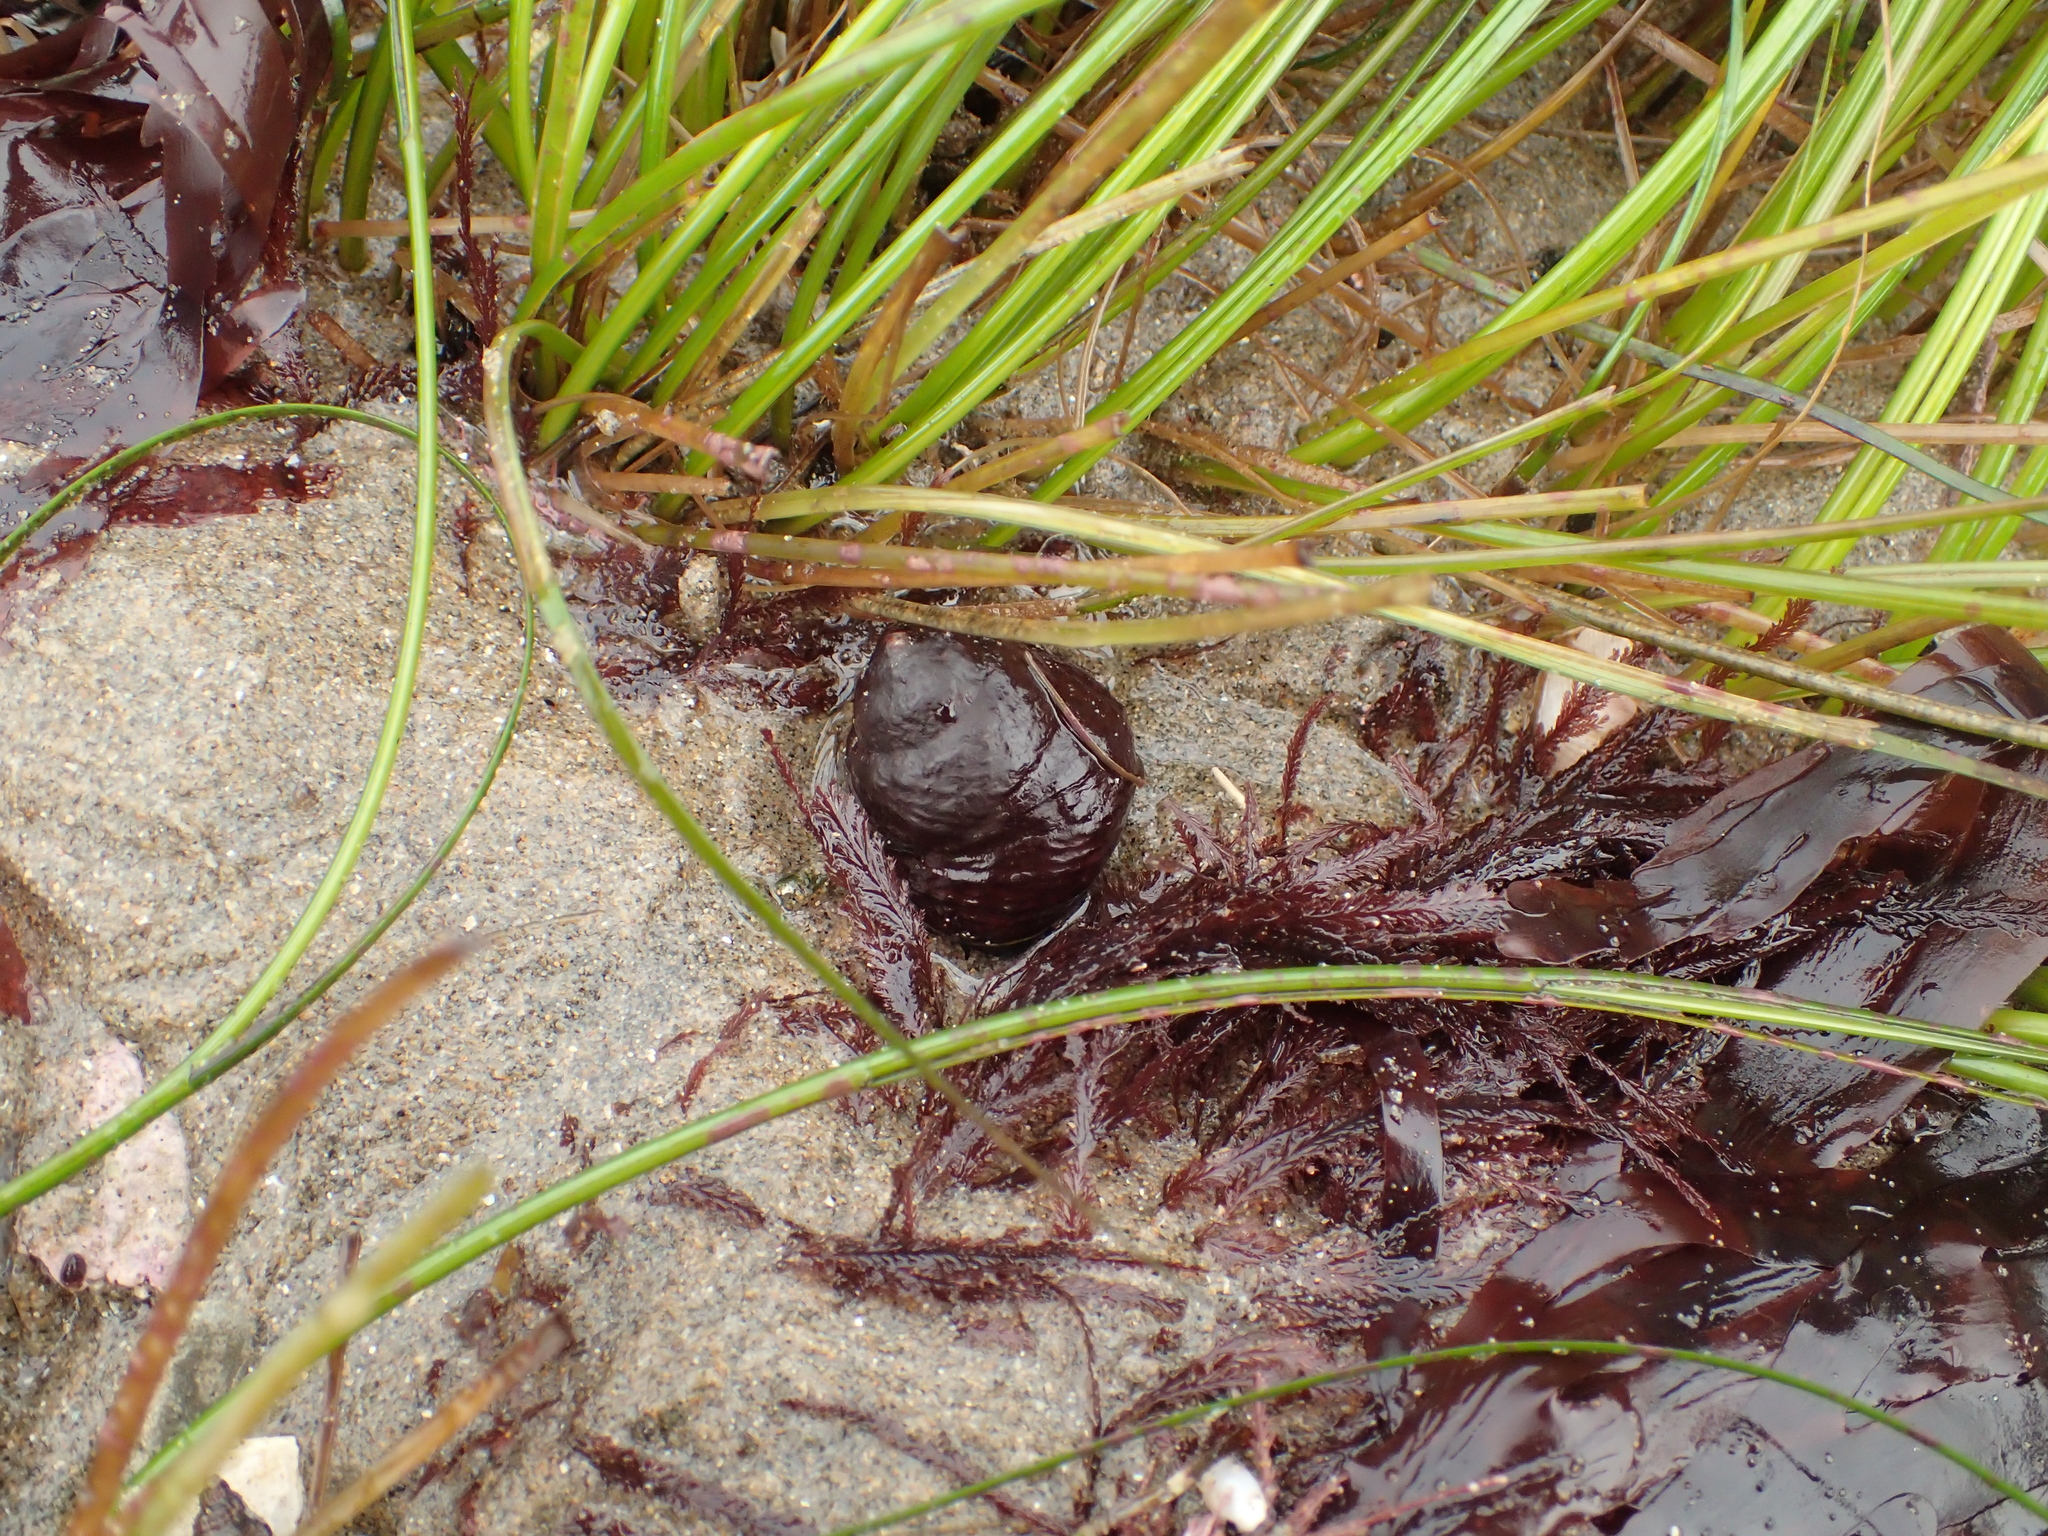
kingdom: Animalia
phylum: Mollusca
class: Gastropoda
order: Trochida
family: Tegulidae
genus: Tegula
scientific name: Tegula brunnea
